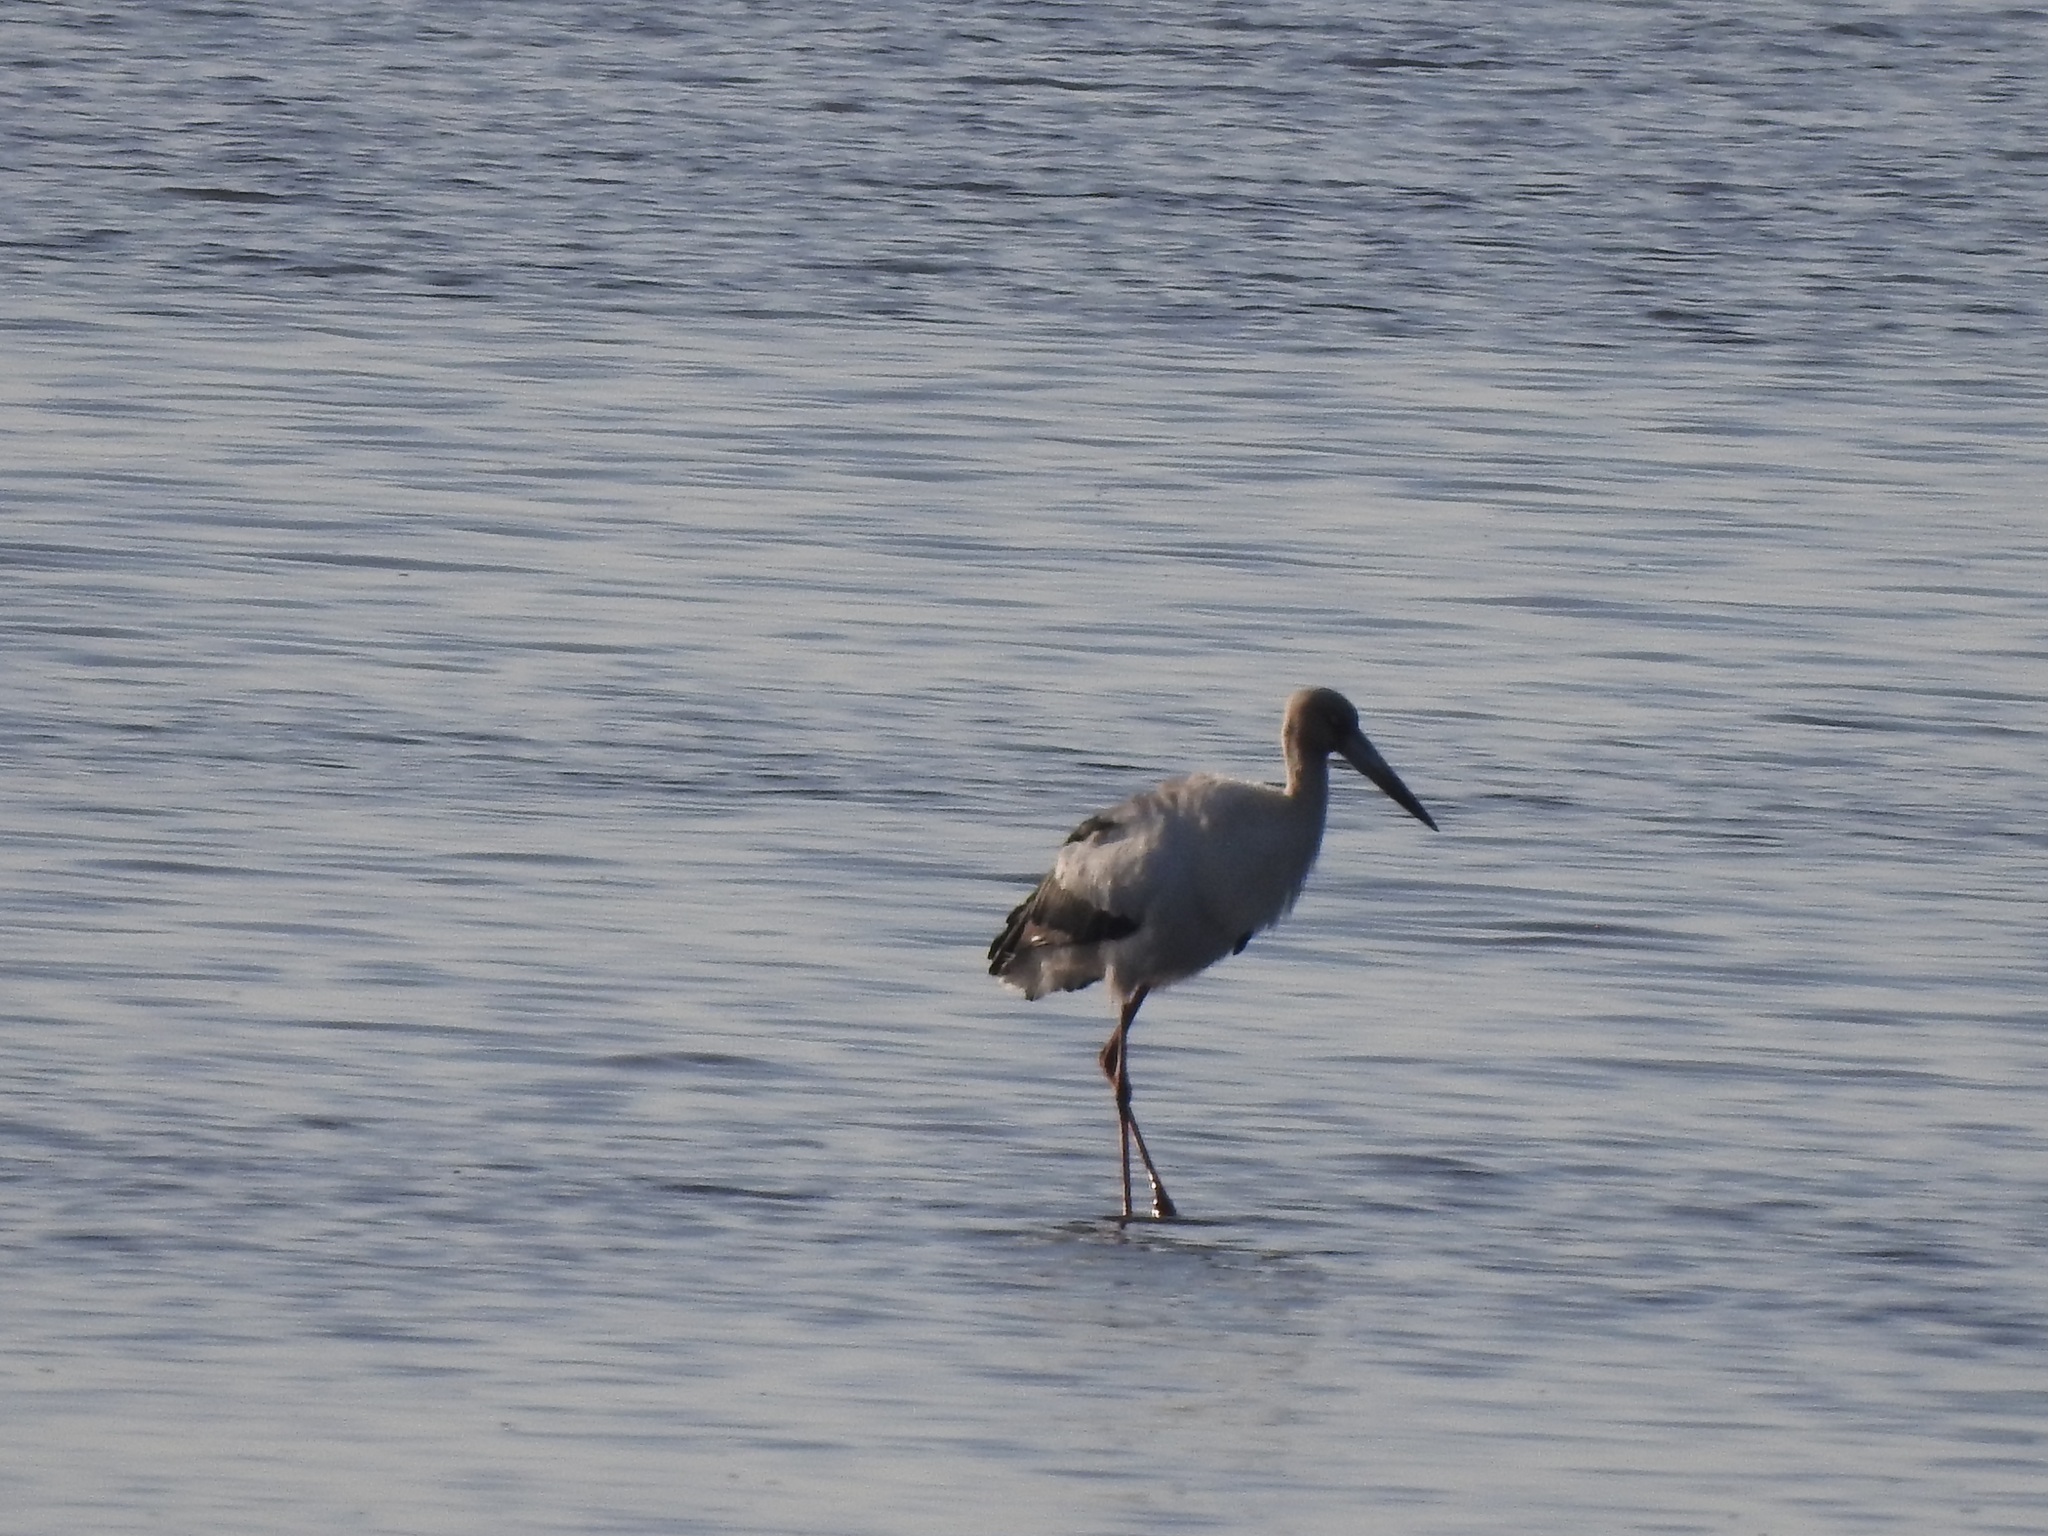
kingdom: Animalia
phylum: Chordata
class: Aves
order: Ciconiiformes
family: Ciconiidae
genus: Ciconia
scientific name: Ciconia maguari
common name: Maguari stork
